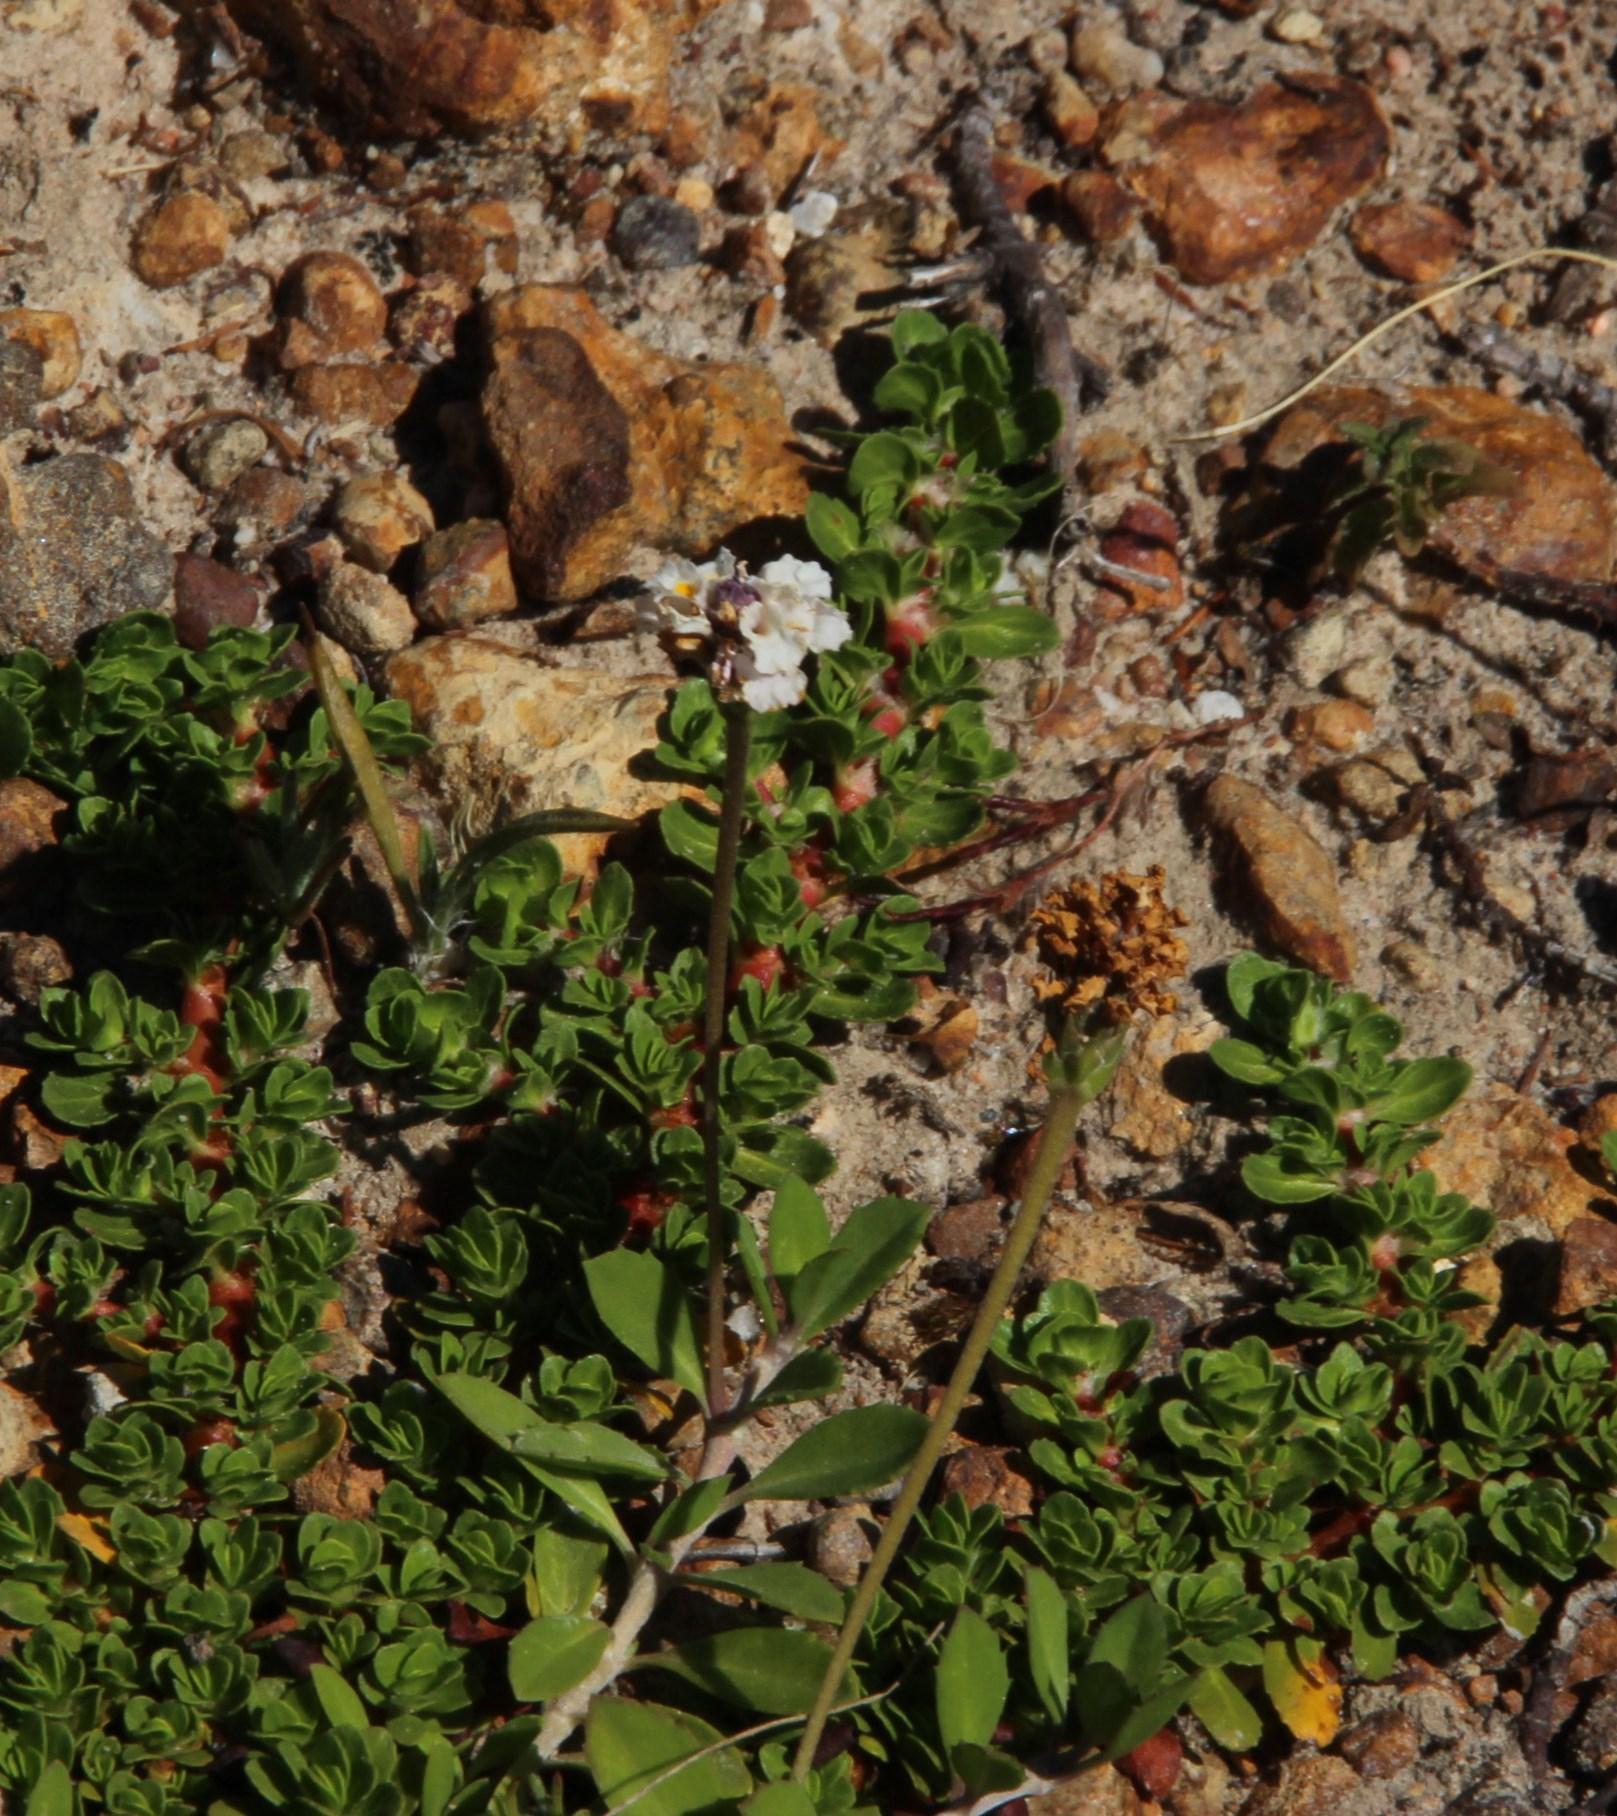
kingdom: Plantae
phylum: Tracheophyta
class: Magnoliopsida
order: Lamiales
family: Verbenaceae
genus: Phyla
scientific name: Phyla nodiflora
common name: Frogfruit
